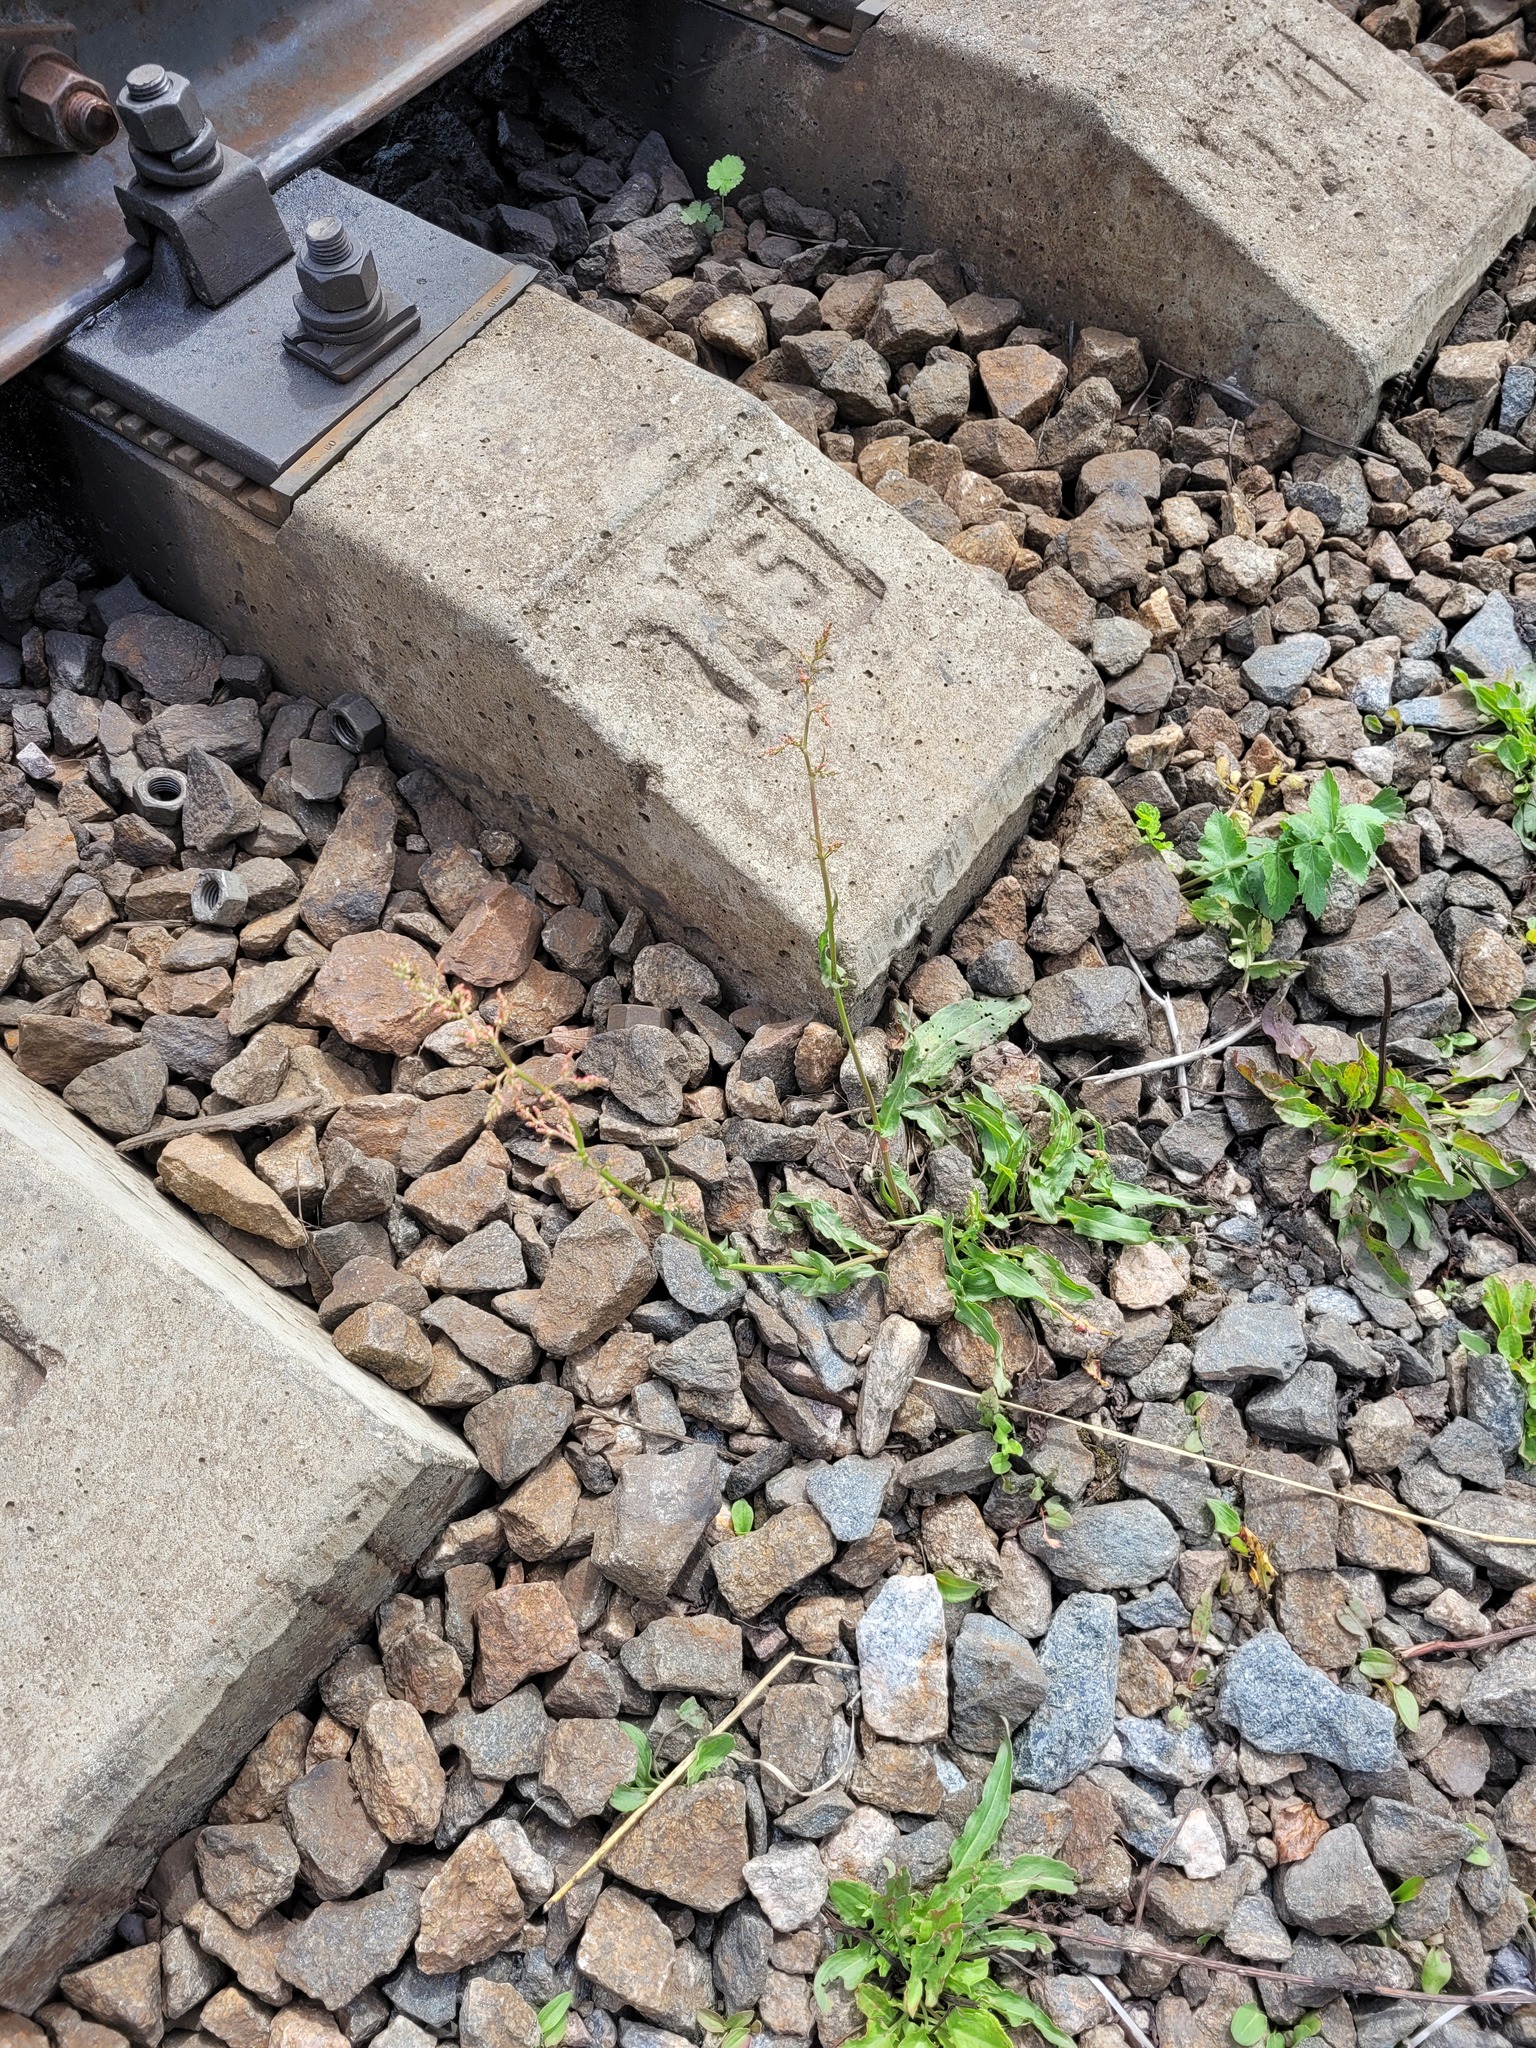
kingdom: Plantae
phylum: Tracheophyta
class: Magnoliopsida
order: Caryophyllales
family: Polygonaceae
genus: Rumex
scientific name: Rumex thyrsiflorus
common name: Garden sorrel
